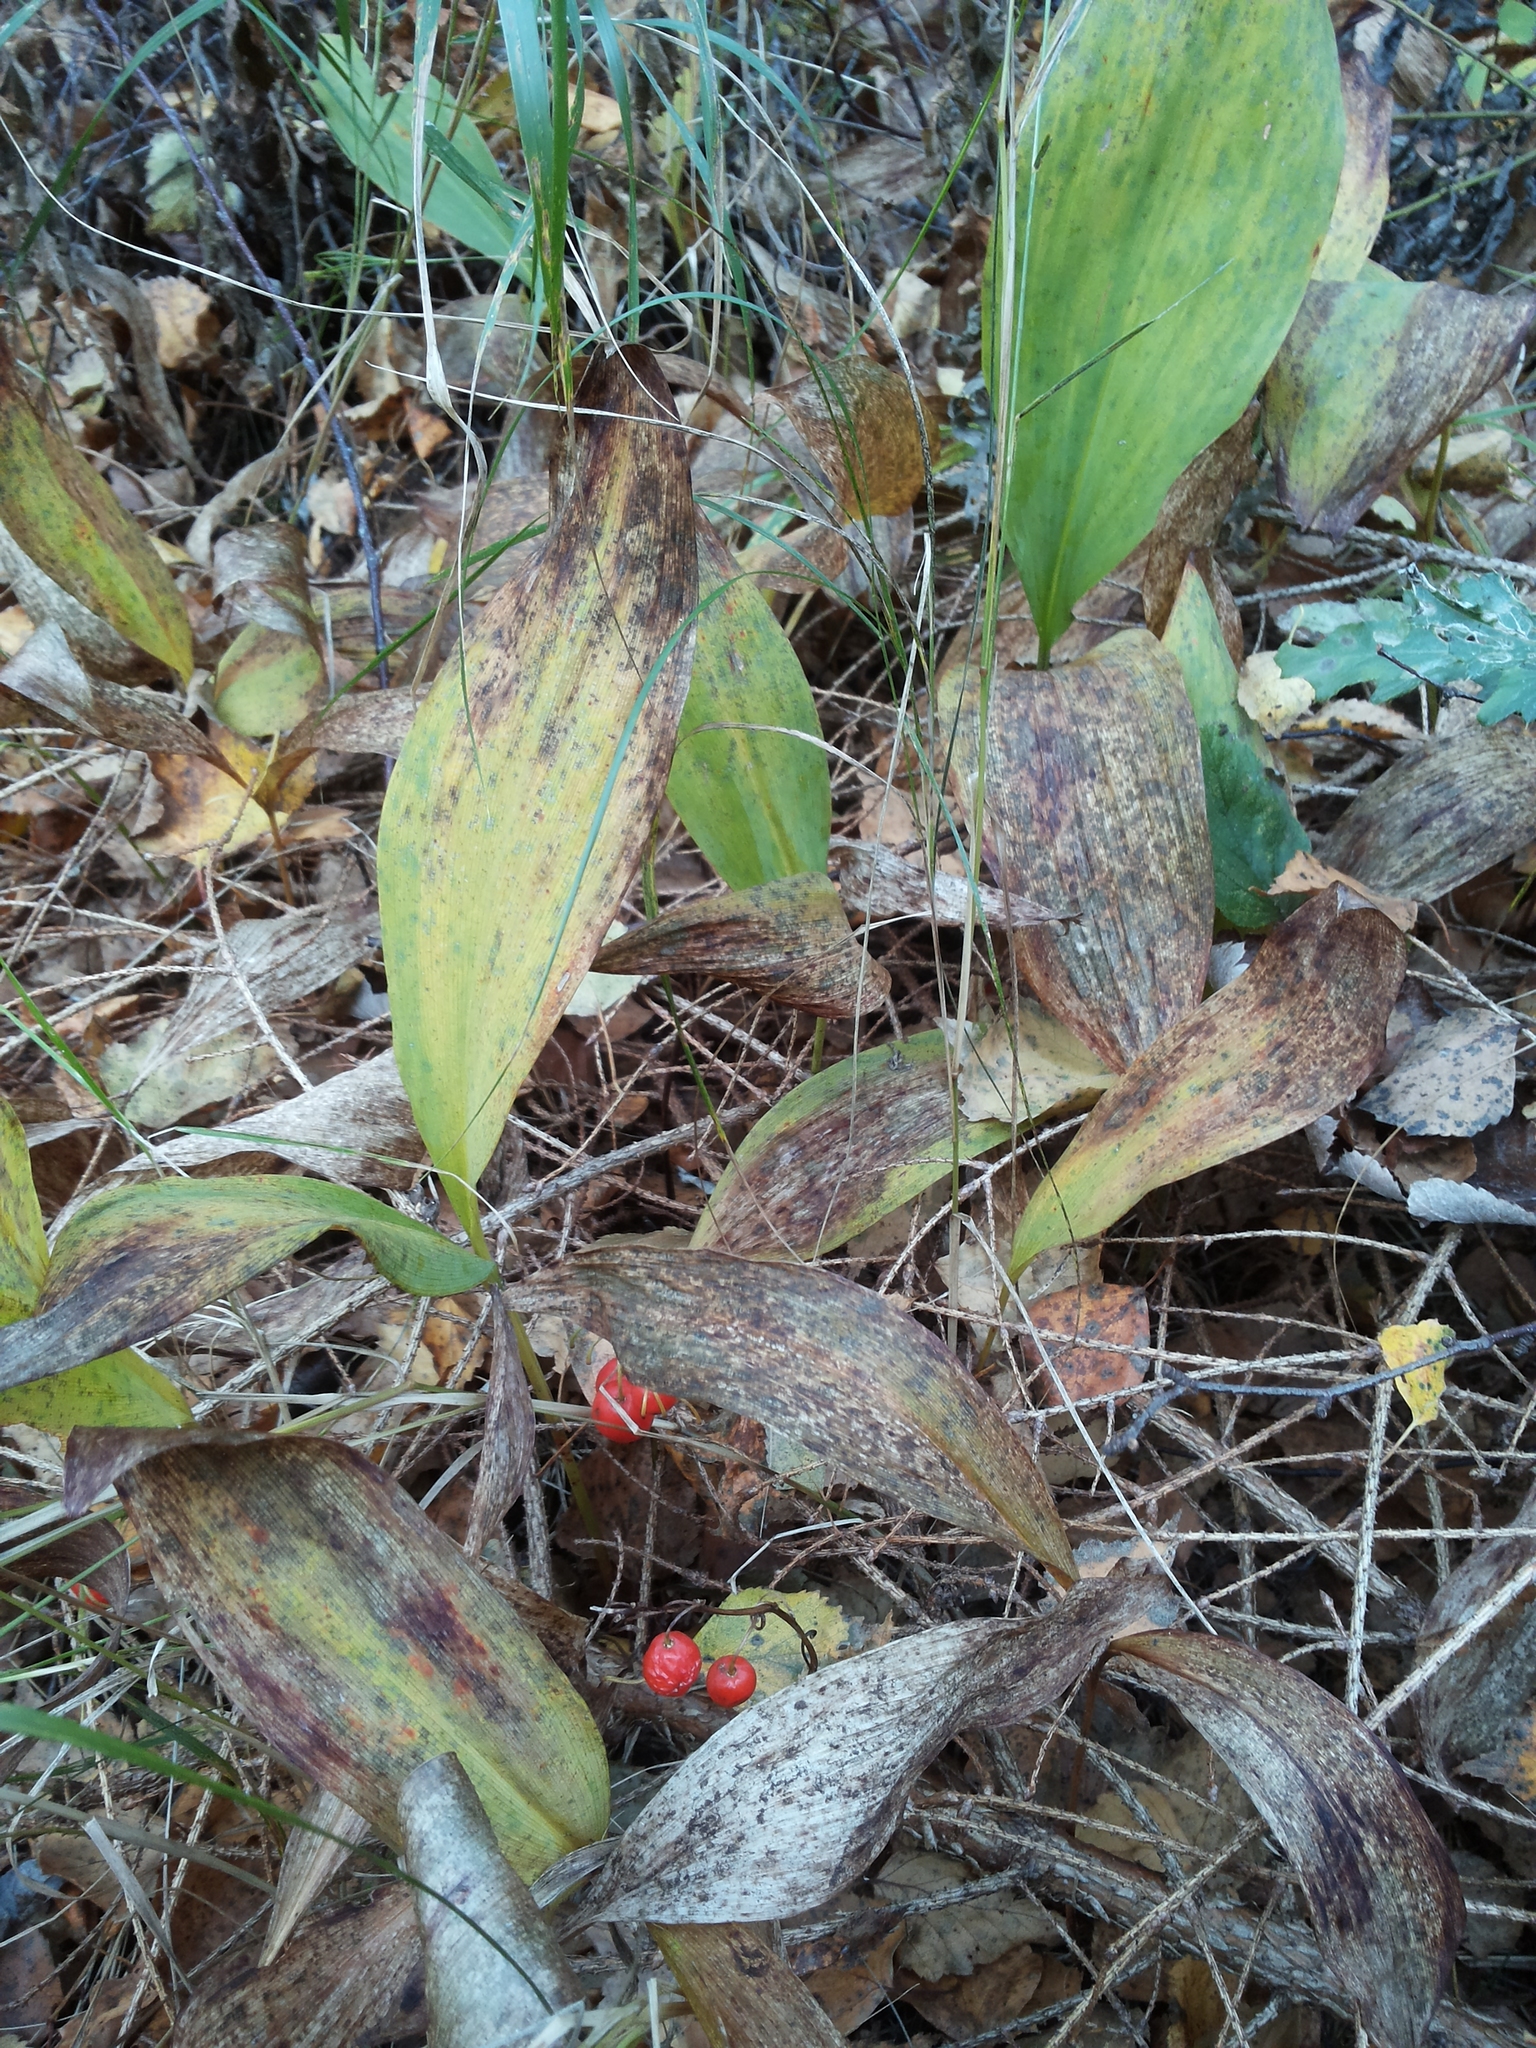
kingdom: Plantae
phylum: Tracheophyta
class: Liliopsida
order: Asparagales
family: Asparagaceae
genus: Convallaria
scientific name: Convallaria majalis
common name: Lily-of-the-valley
